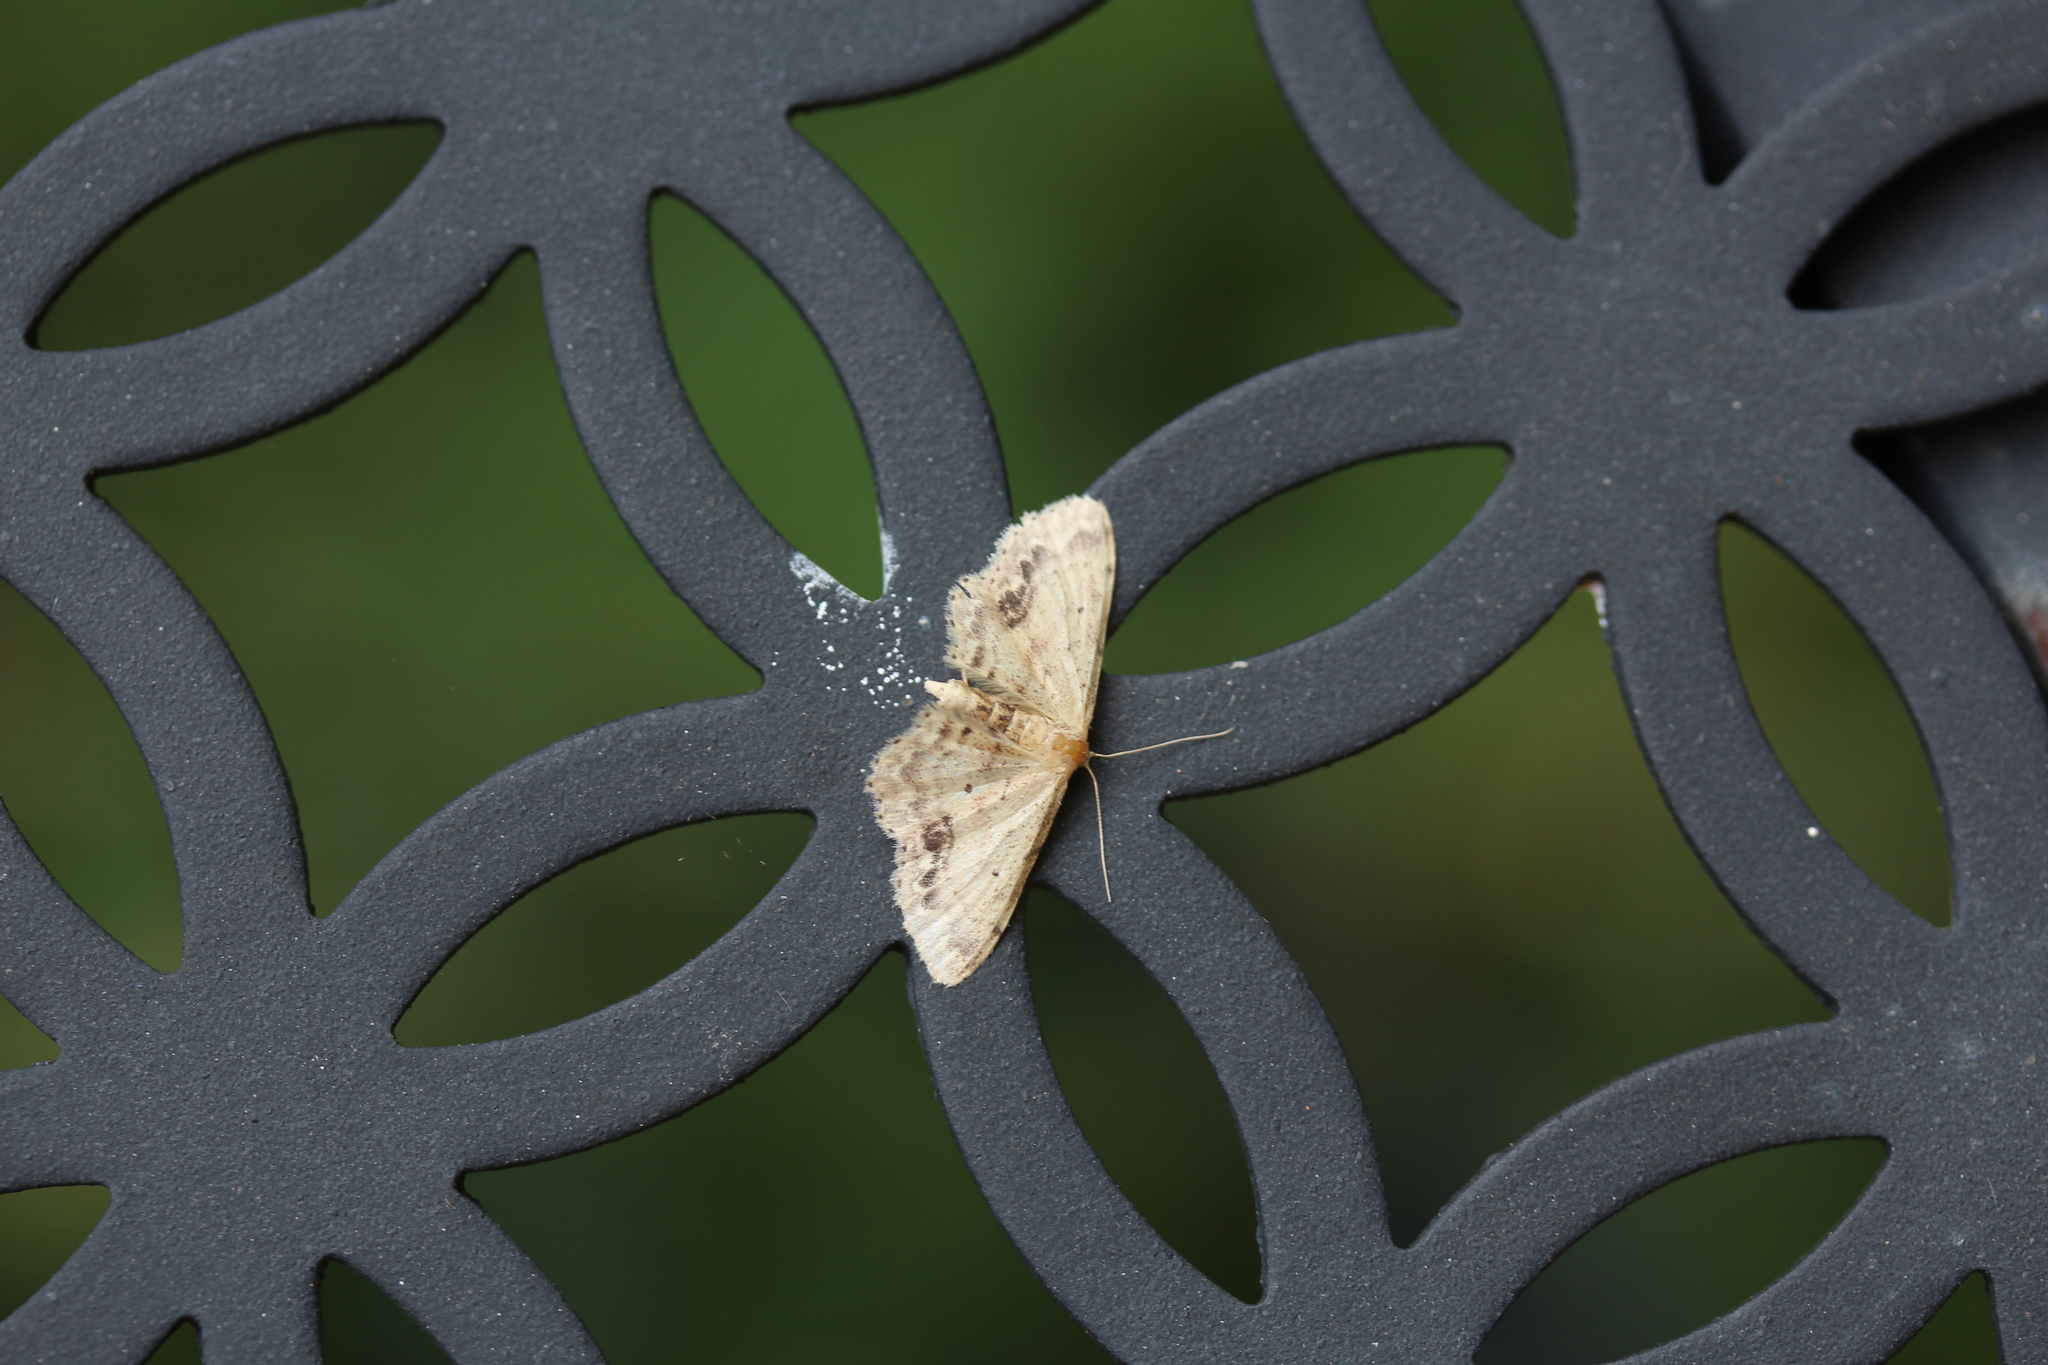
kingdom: Animalia
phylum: Arthropoda
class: Insecta
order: Lepidoptera
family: Geometridae
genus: Idaea
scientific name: Idaea dimidiata
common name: Single-dotted wave
